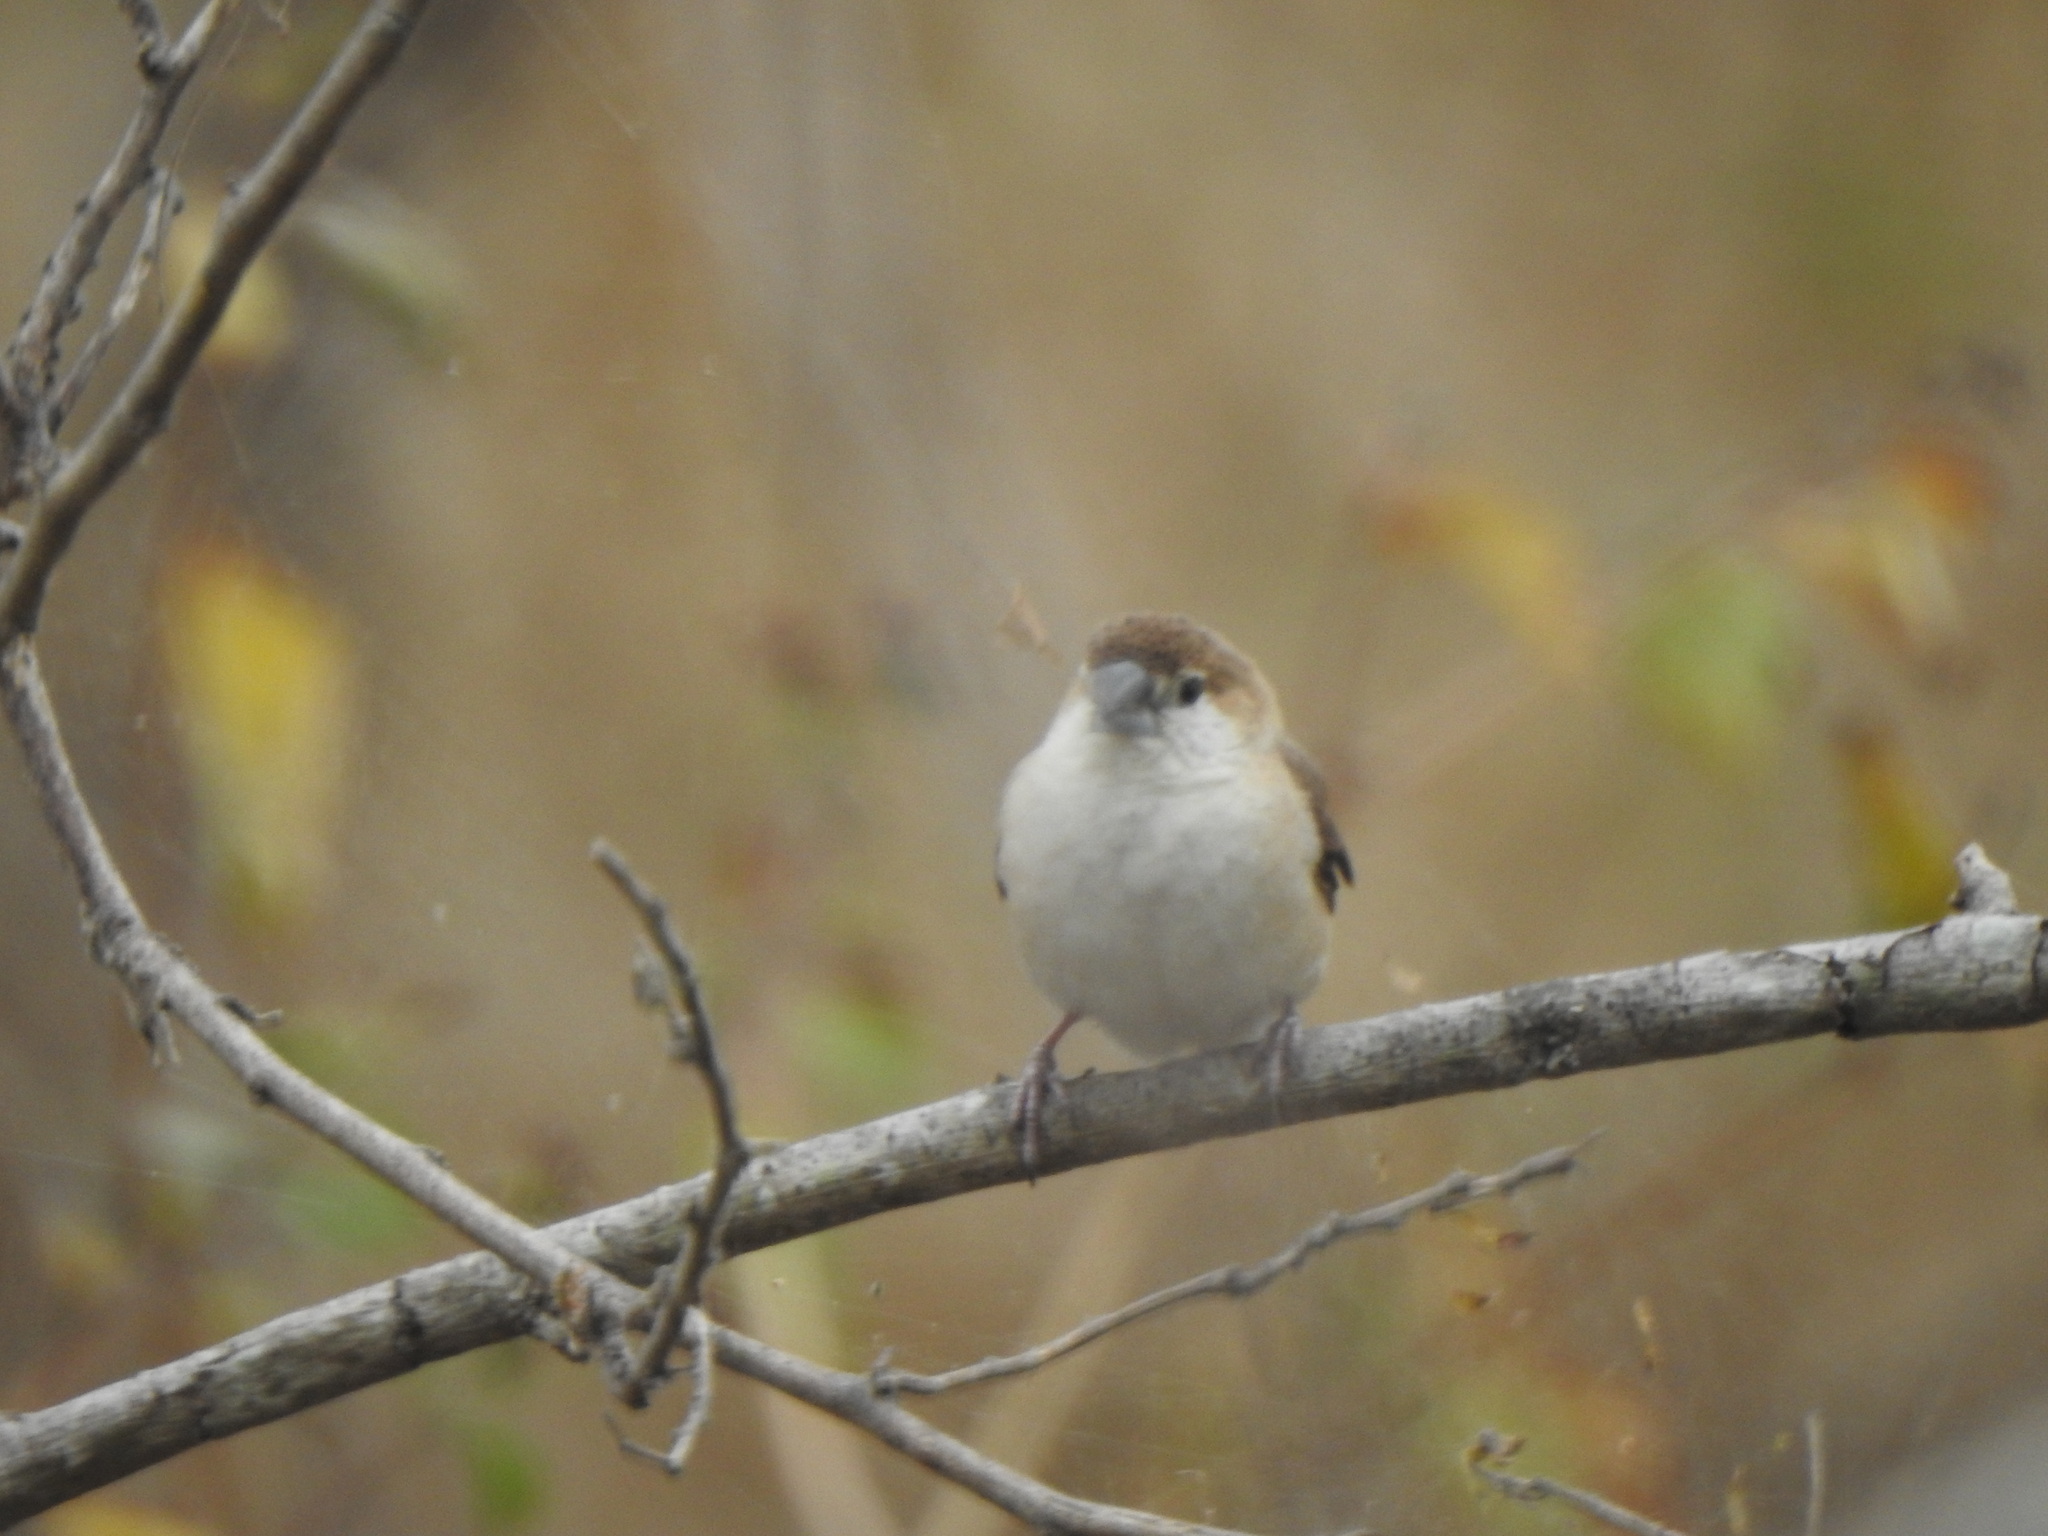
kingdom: Animalia
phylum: Chordata
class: Aves
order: Passeriformes
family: Estrildidae
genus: Euodice
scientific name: Euodice malabarica
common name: Indian silverbill
